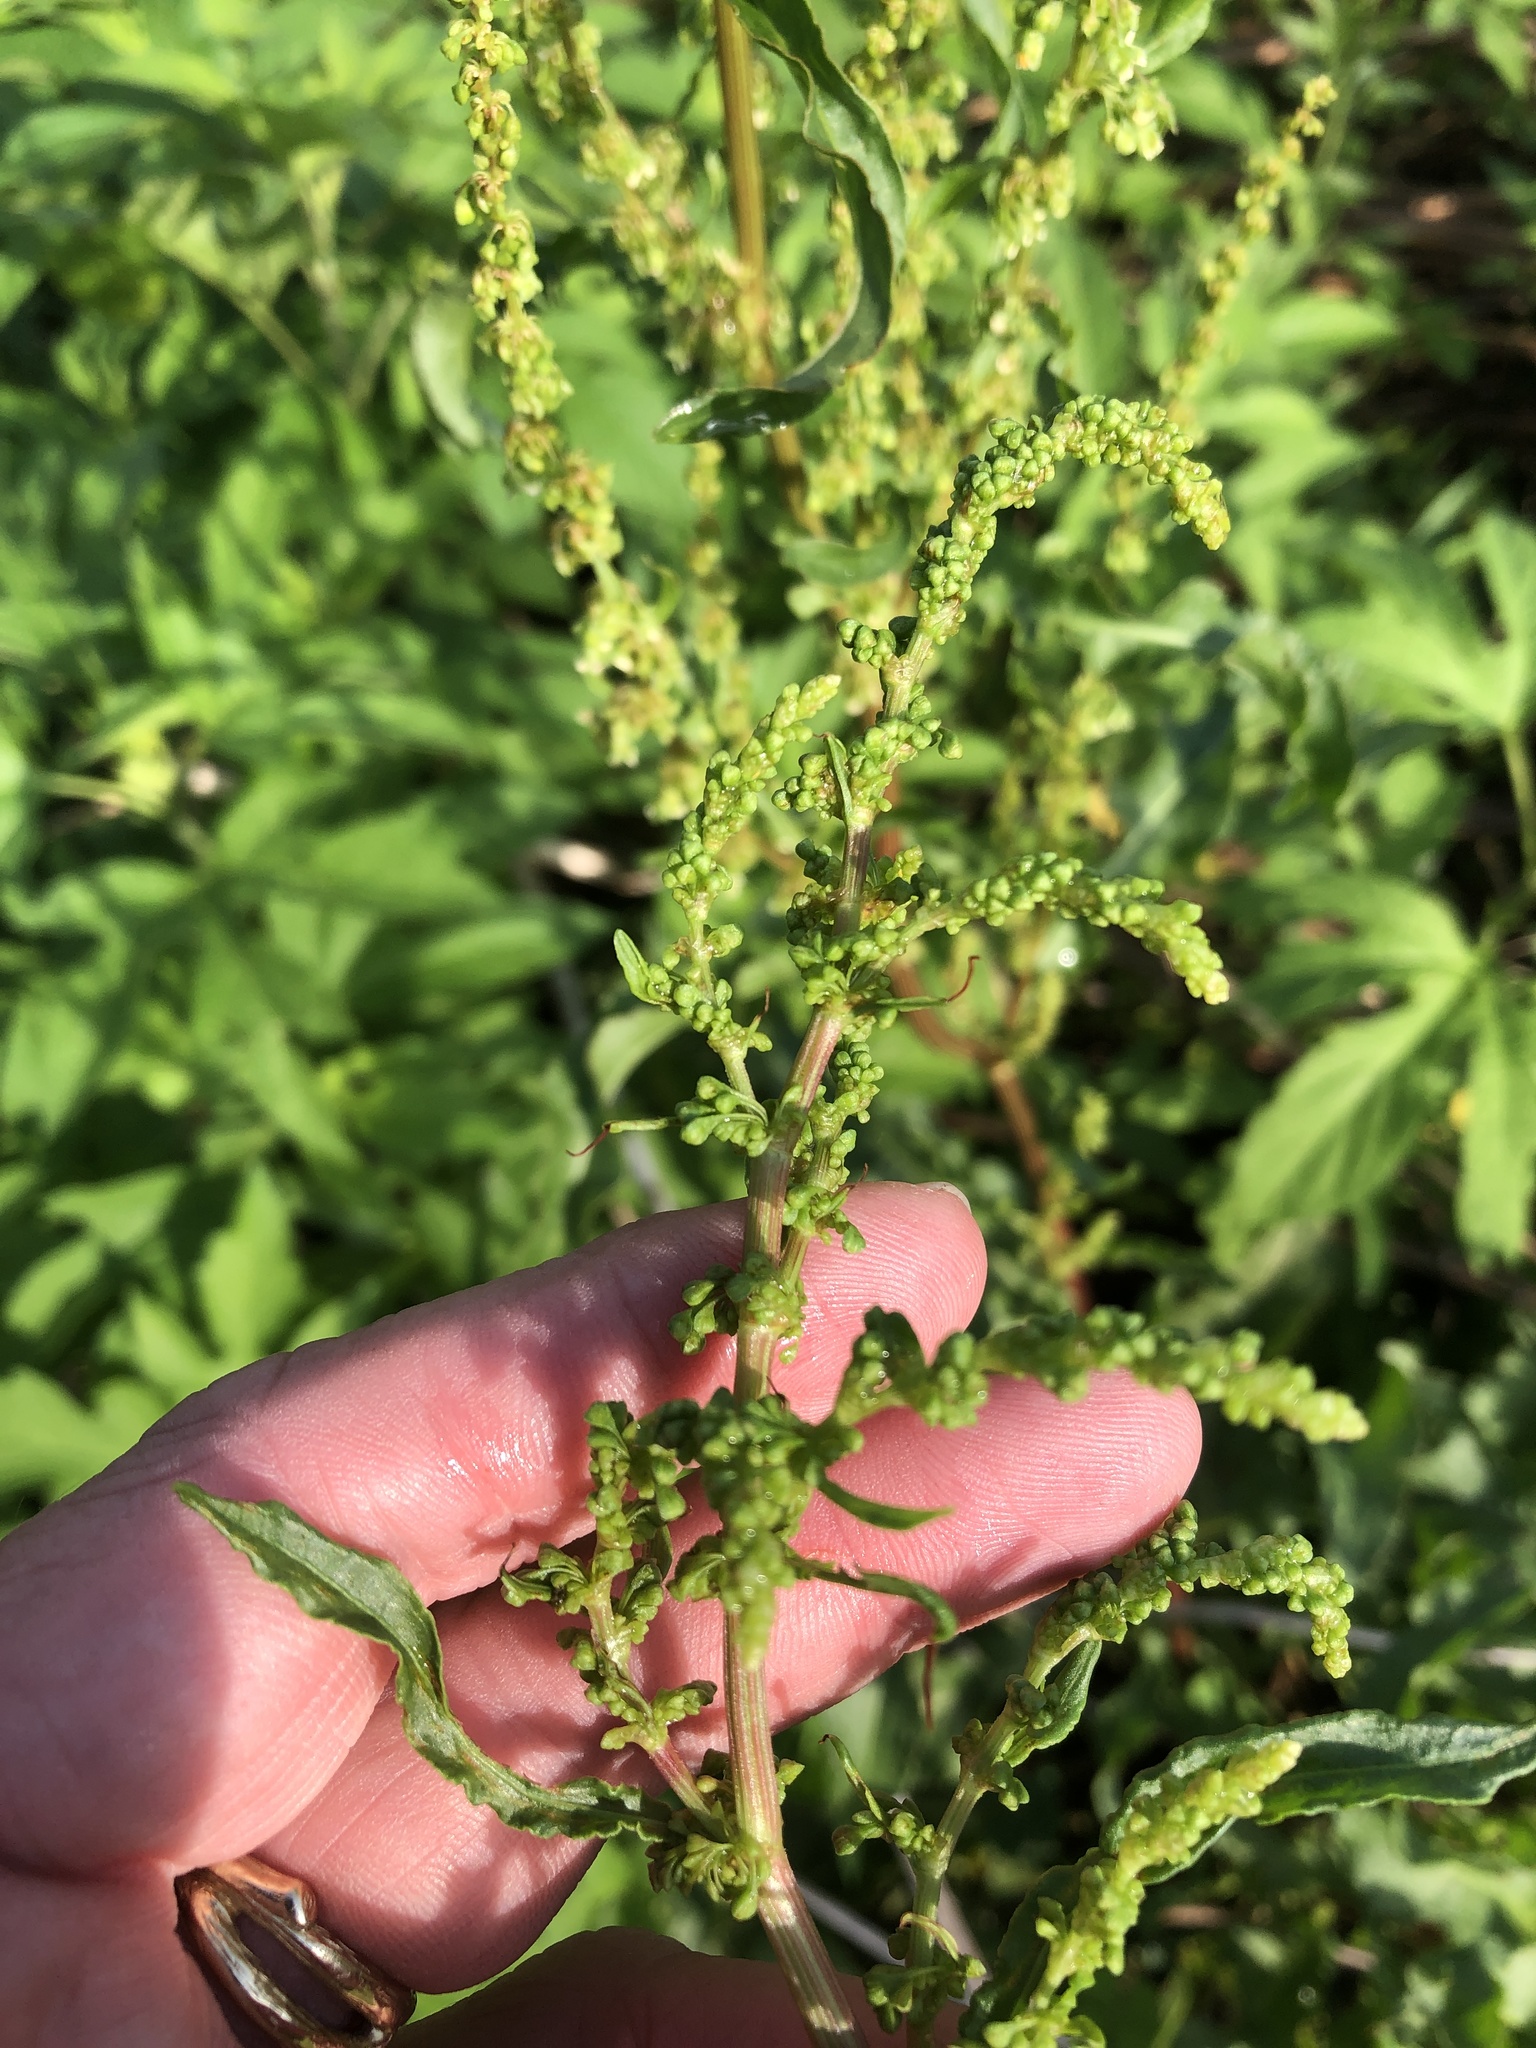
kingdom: Plantae
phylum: Tracheophyta
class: Magnoliopsida
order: Caryophyllales
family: Polygonaceae
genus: Rumex
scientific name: Rumex crispus
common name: Curled dock
